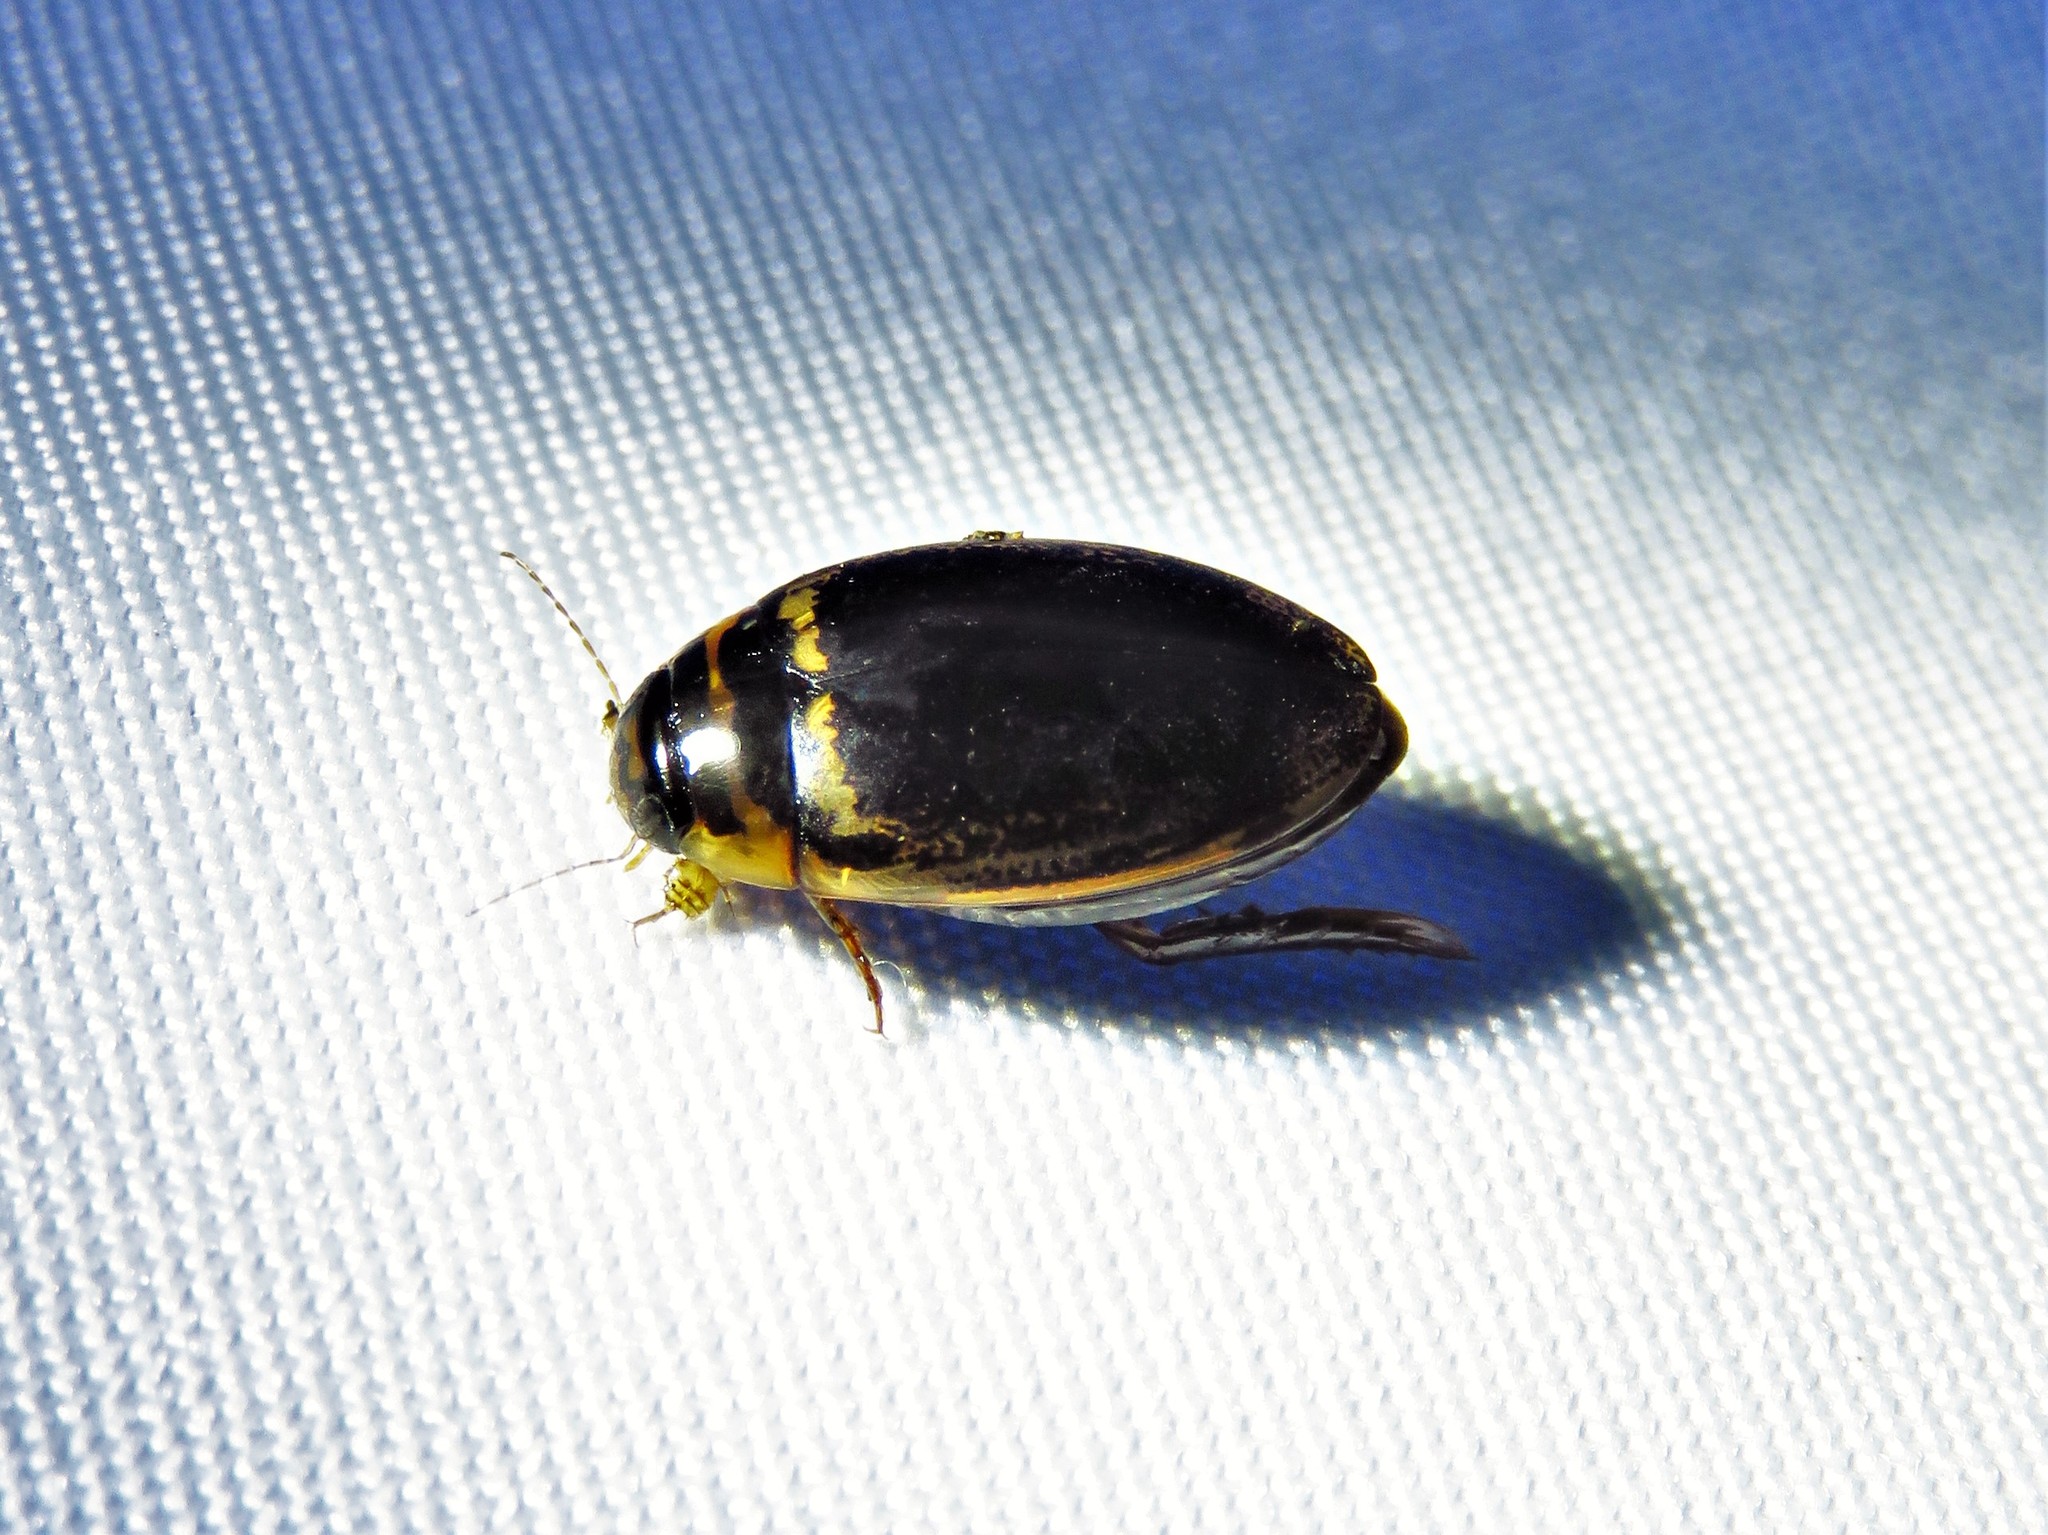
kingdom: Animalia
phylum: Arthropoda
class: Insecta
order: Coleoptera
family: Dytiscidae
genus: Thermonectus
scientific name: Thermonectus basillaris
